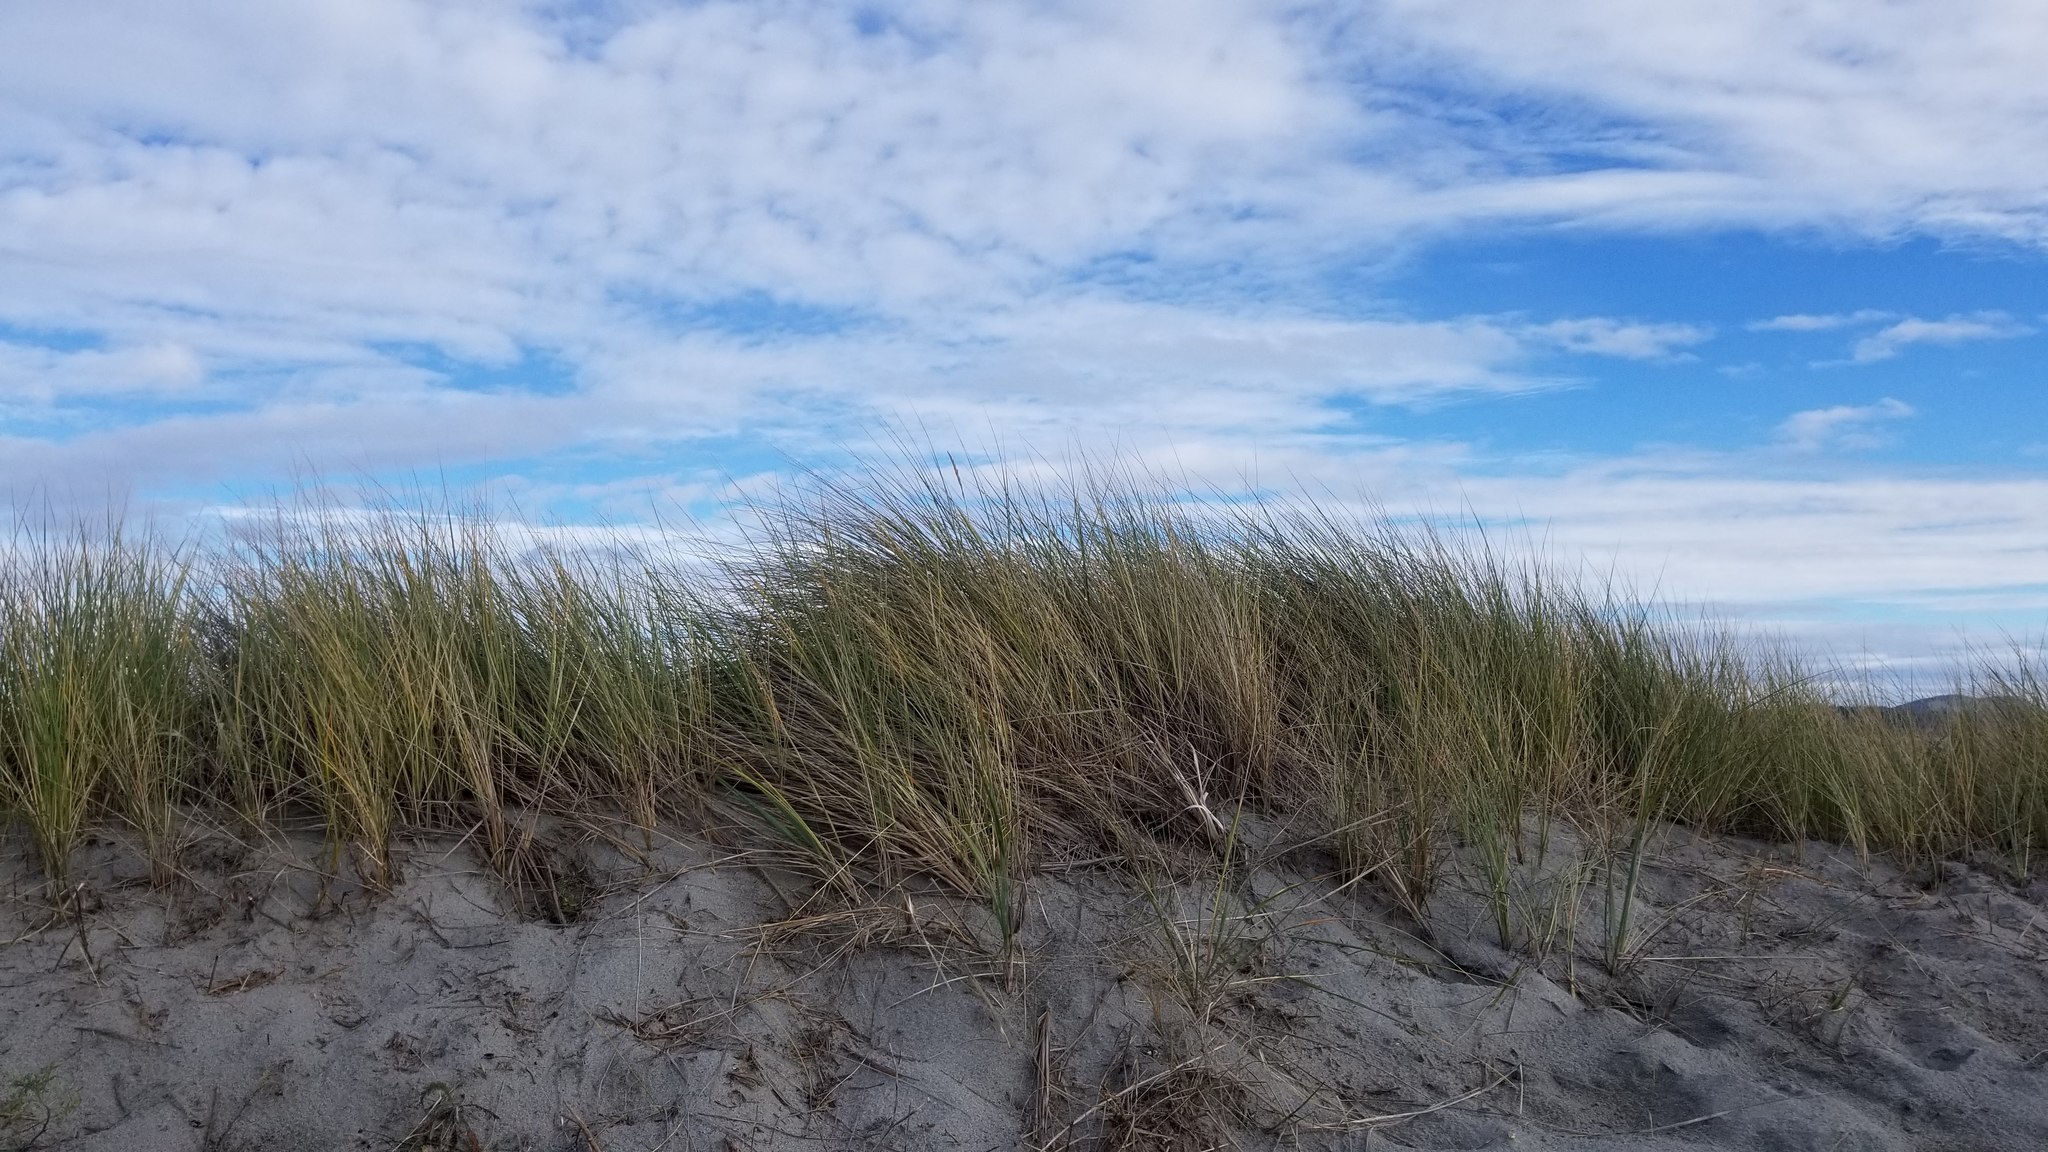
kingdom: Plantae
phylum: Tracheophyta
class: Liliopsida
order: Poales
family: Poaceae
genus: Calamagrostis
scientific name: Calamagrostis arenaria
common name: European beachgrass
